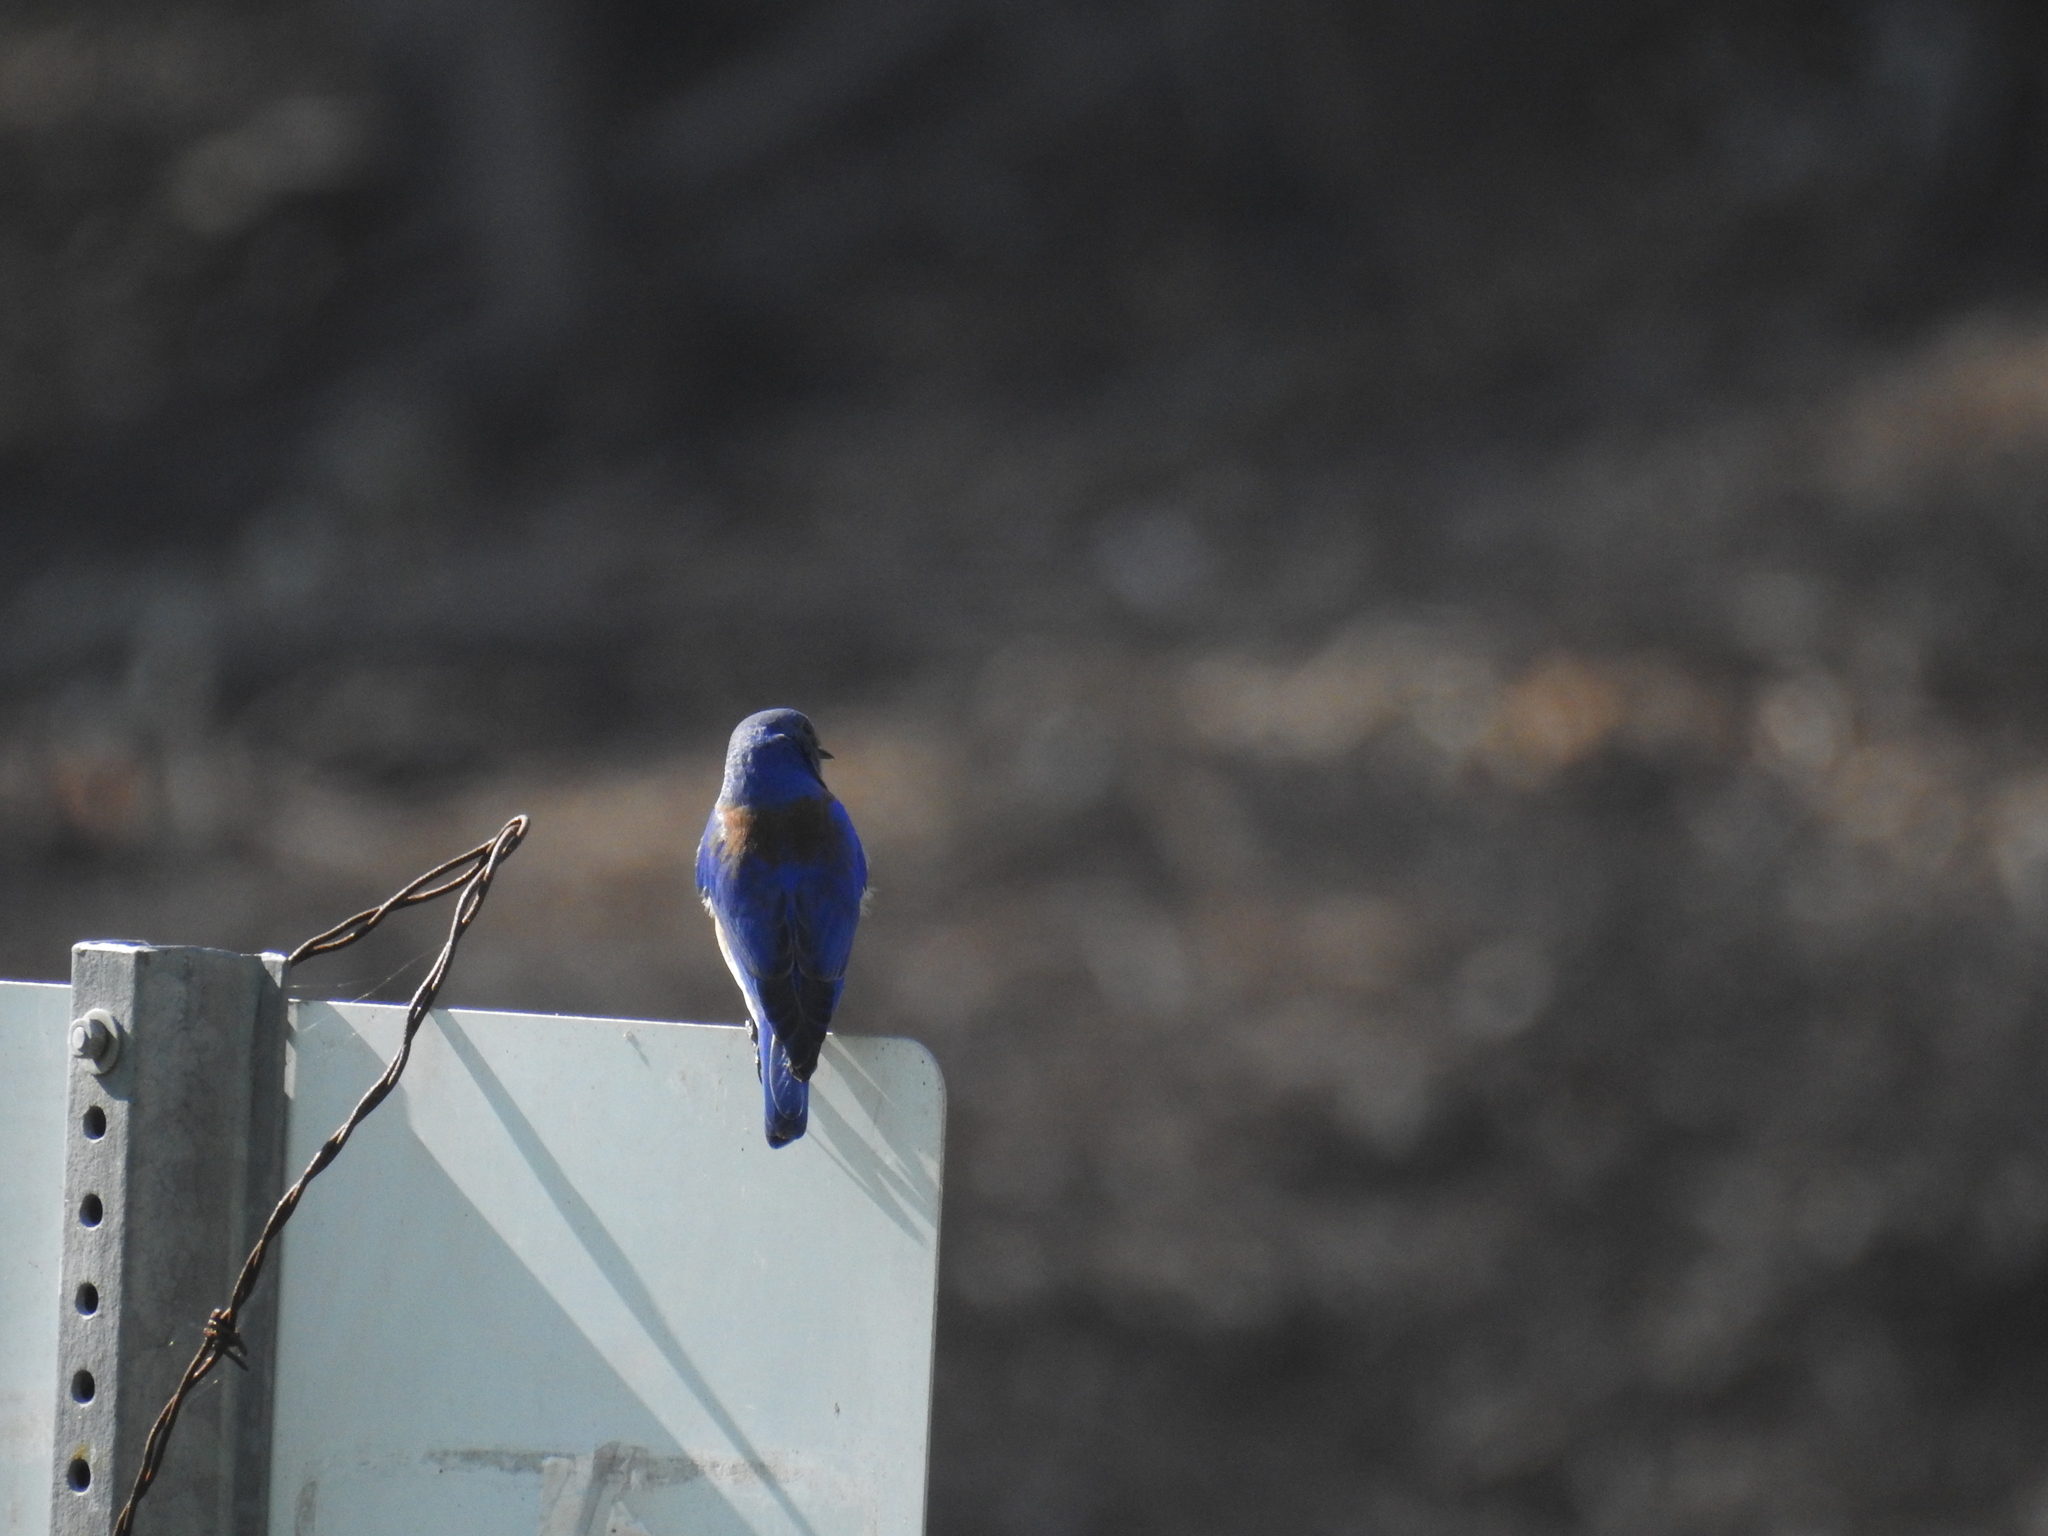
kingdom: Animalia
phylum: Chordata
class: Aves
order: Passeriformes
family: Turdidae
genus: Sialia
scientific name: Sialia mexicana
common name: Western bluebird
